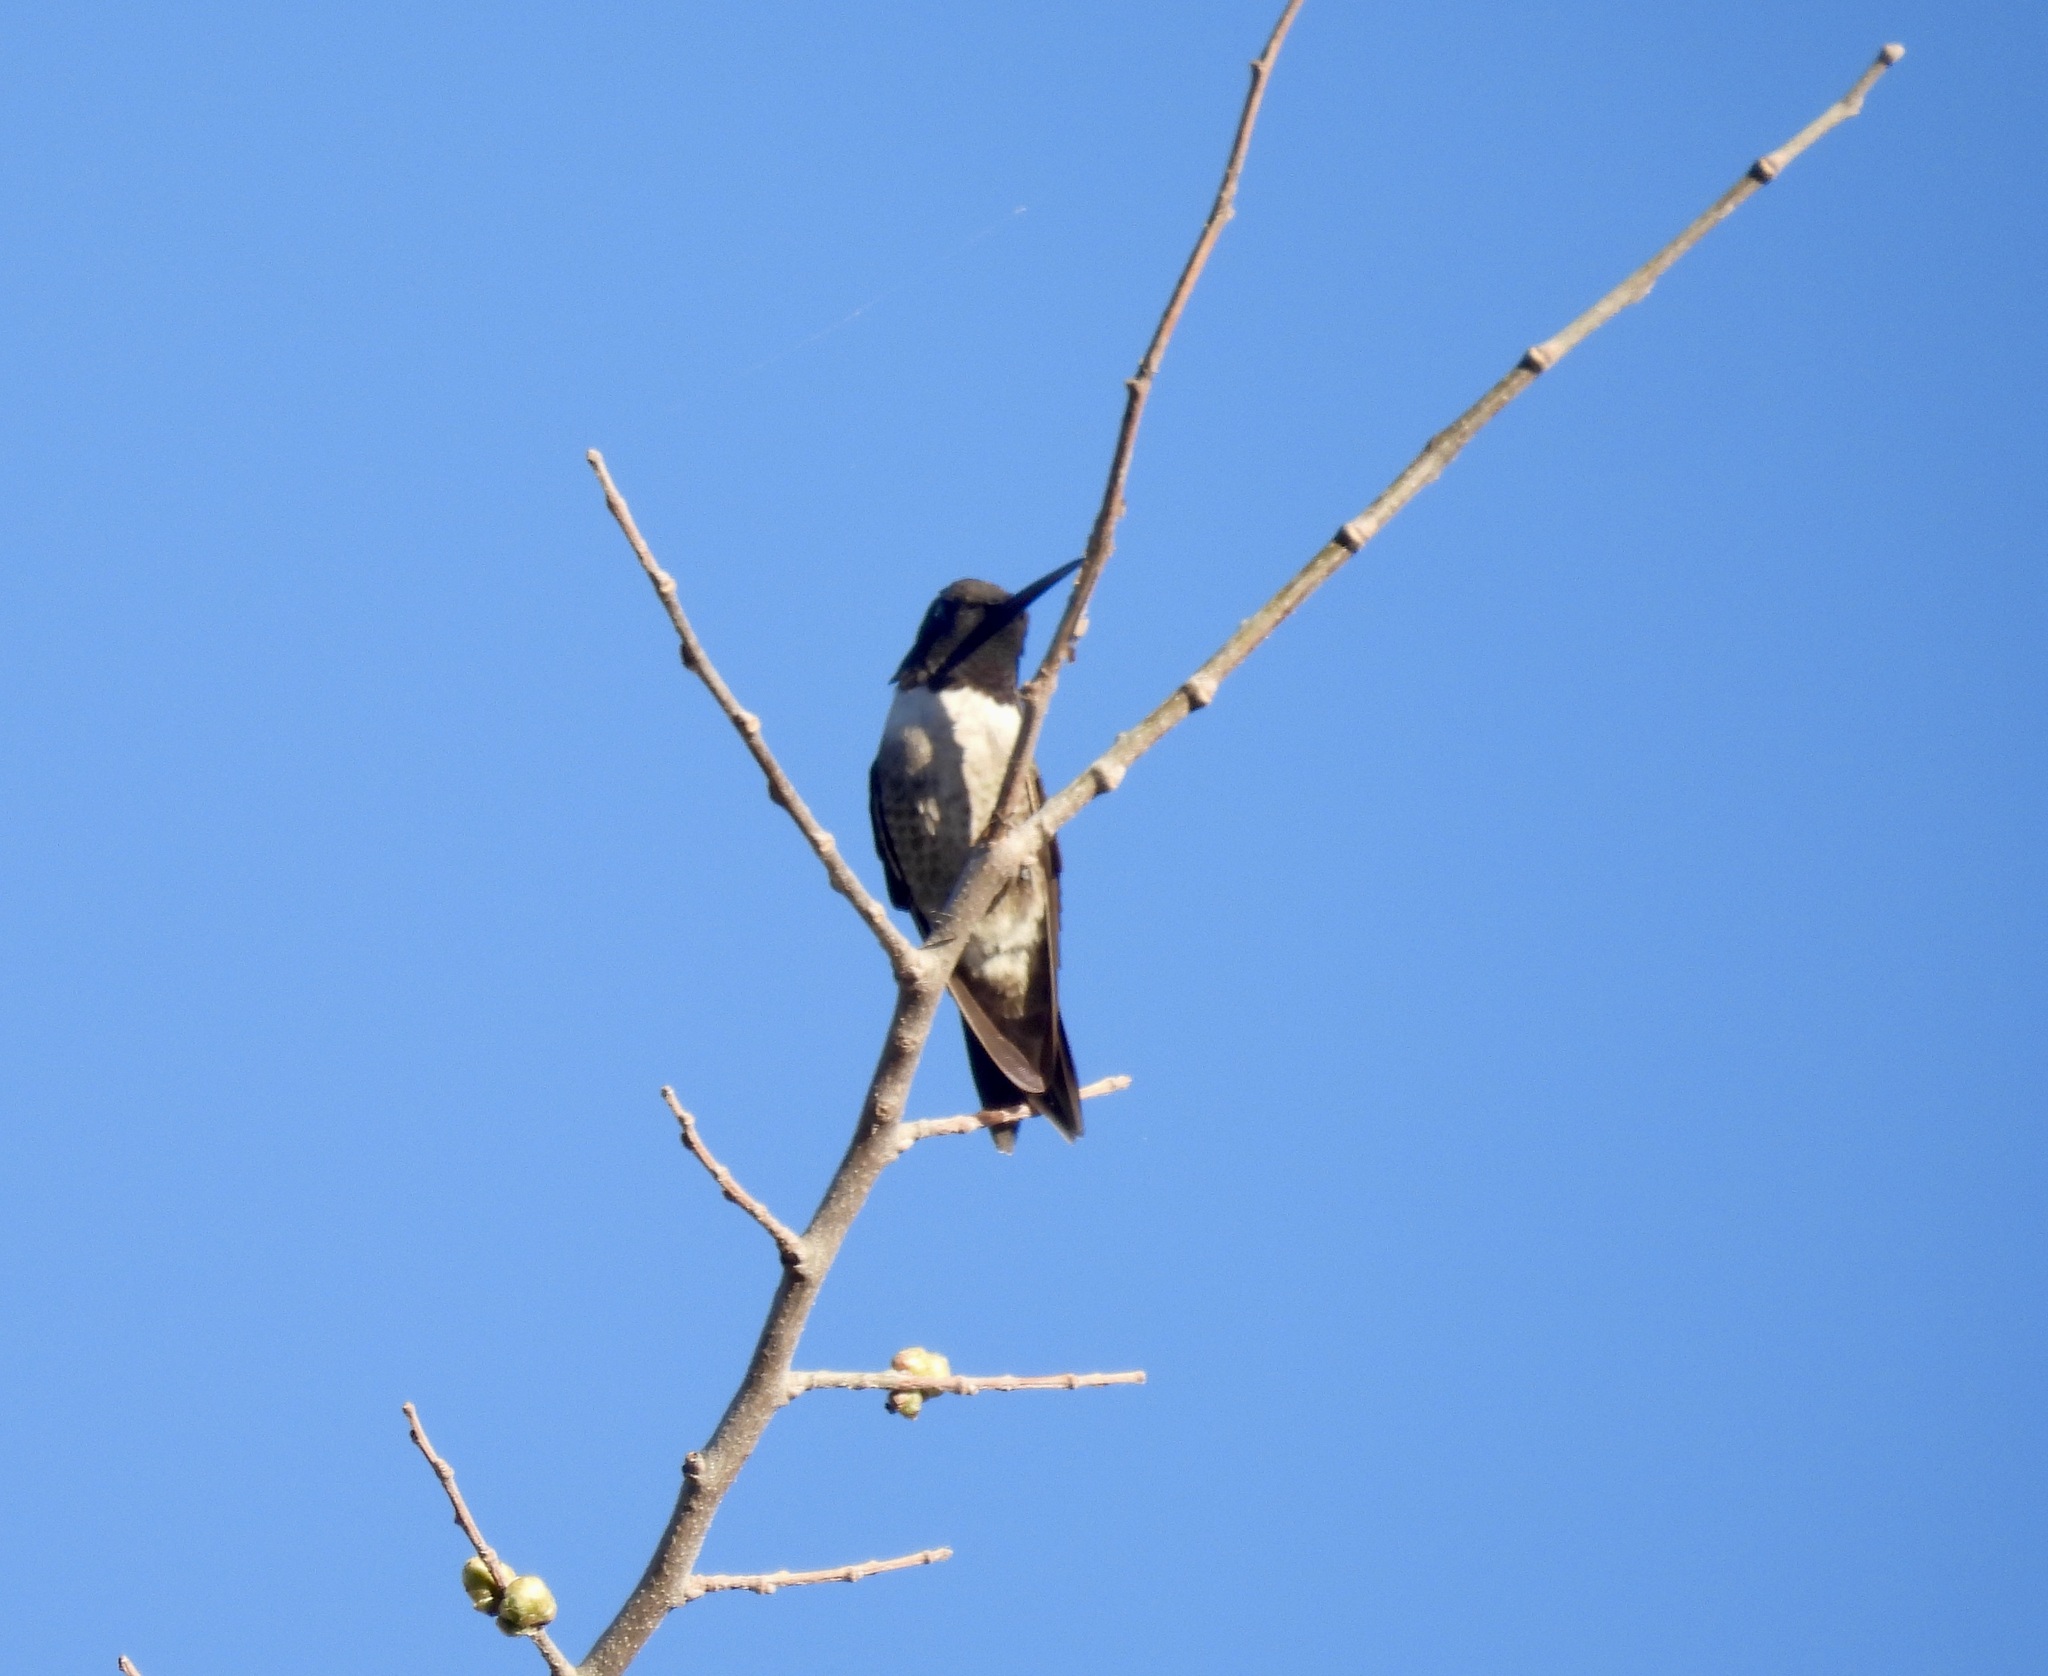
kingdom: Animalia
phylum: Chordata
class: Aves
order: Apodiformes
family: Trochilidae
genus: Archilochus
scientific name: Archilochus alexandri
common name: Black-chinned hummingbird
